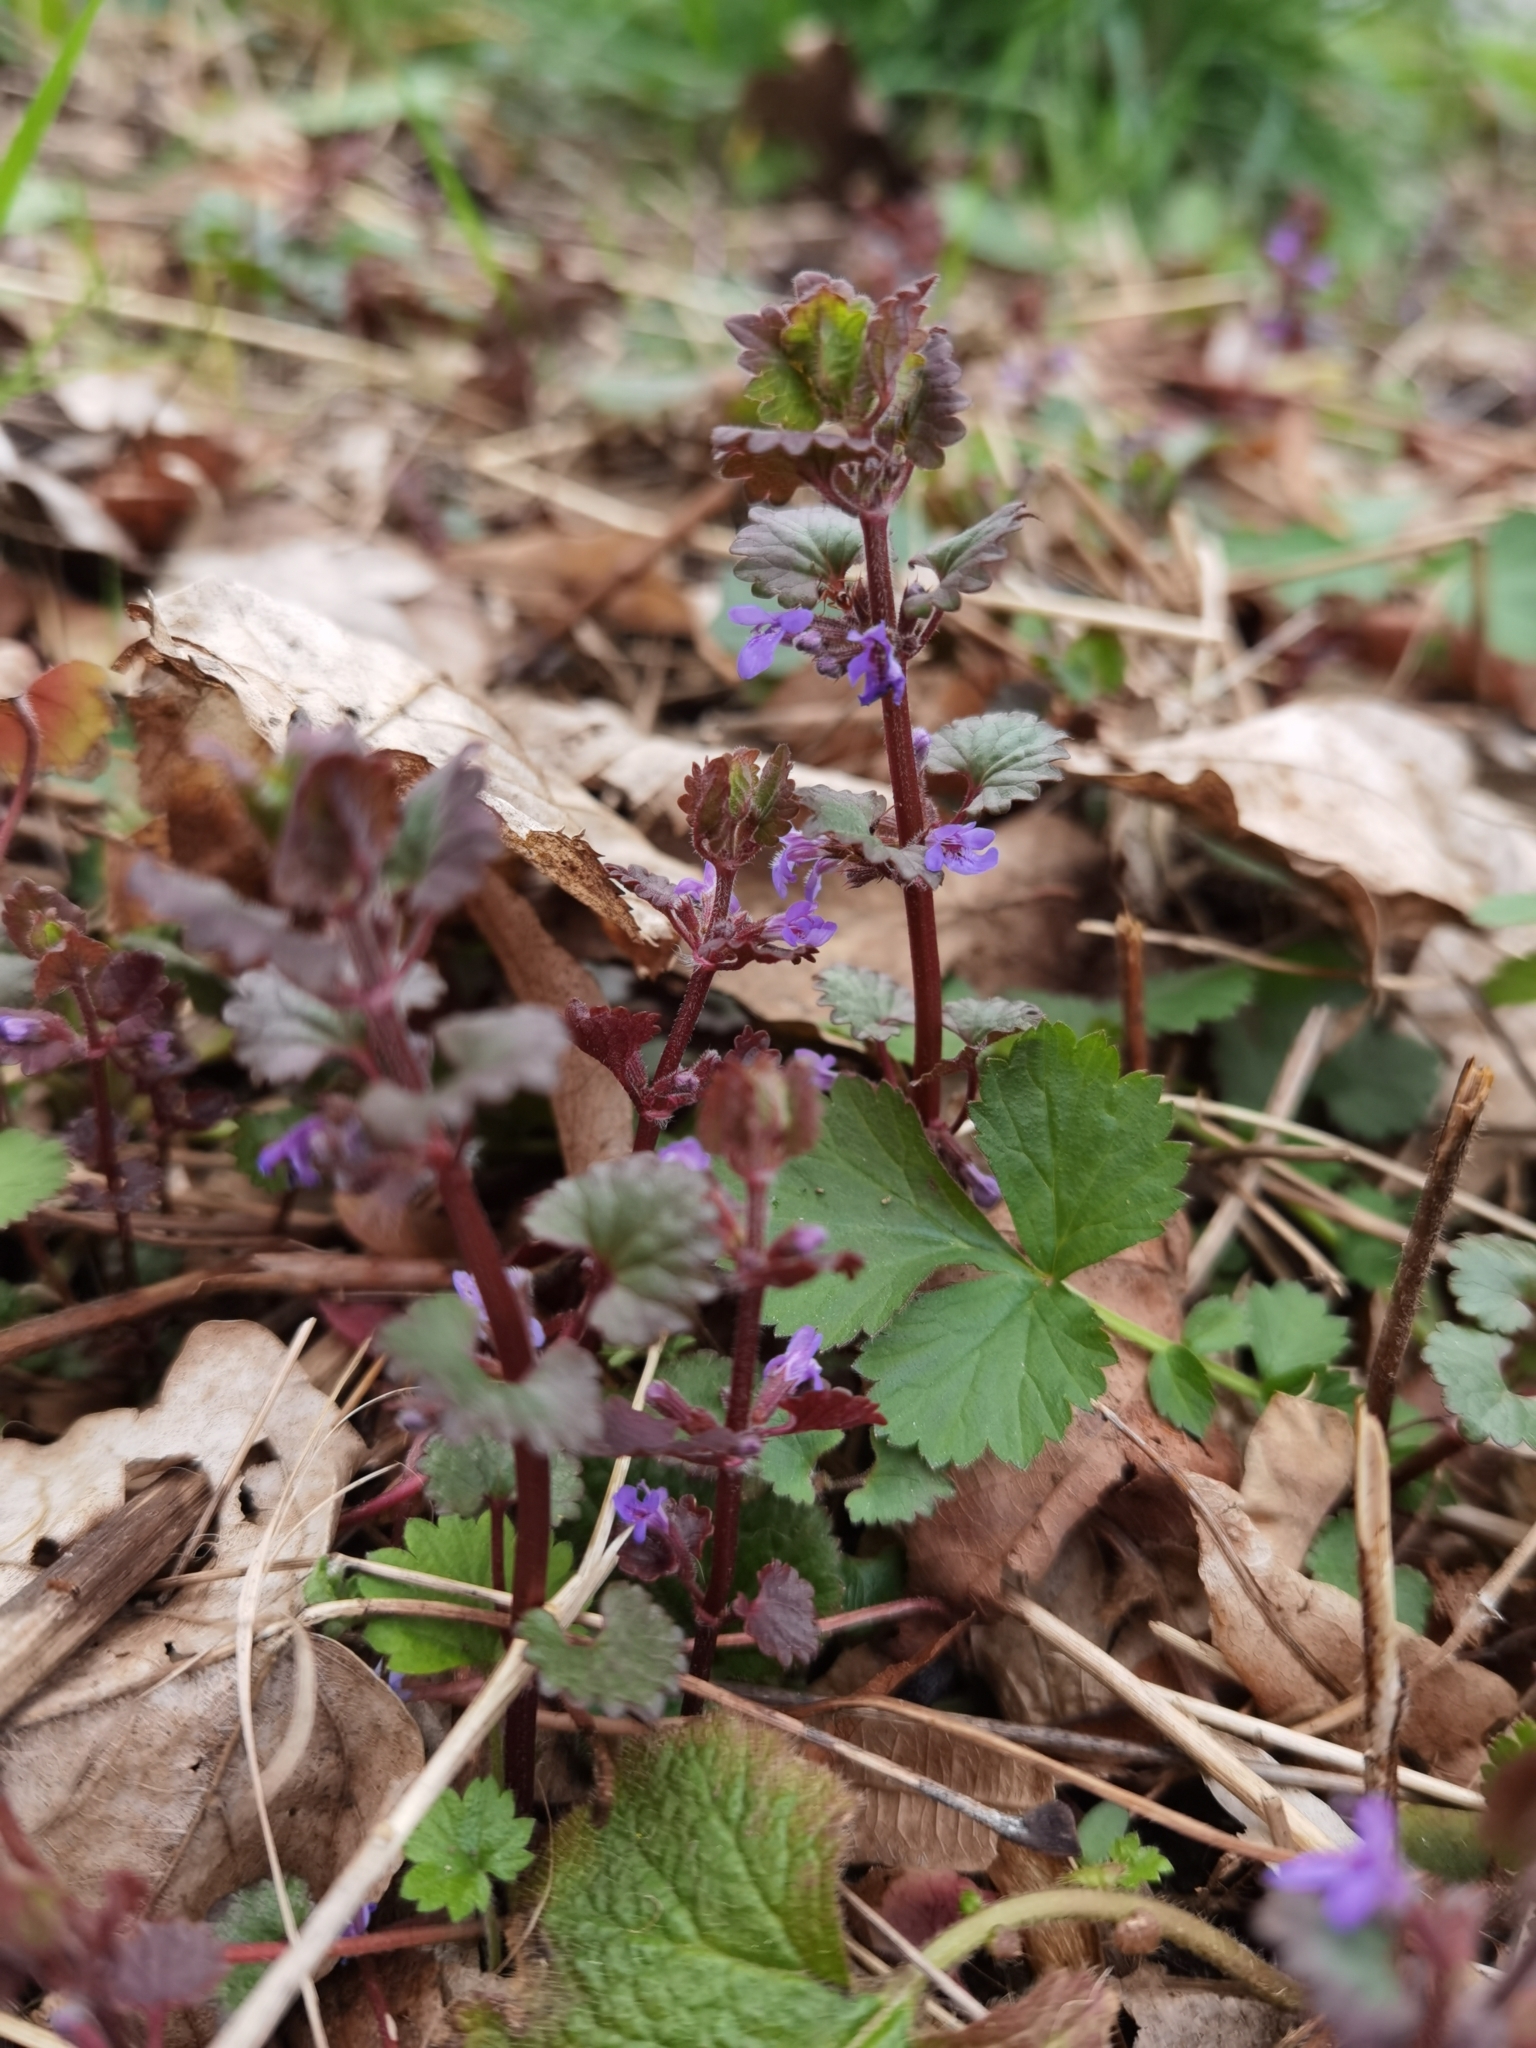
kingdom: Plantae
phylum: Tracheophyta
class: Magnoliopsida
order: Lamiales
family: Lamiaceae
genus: Glechoma
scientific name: Glechoma hederacea
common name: Ground ivy
